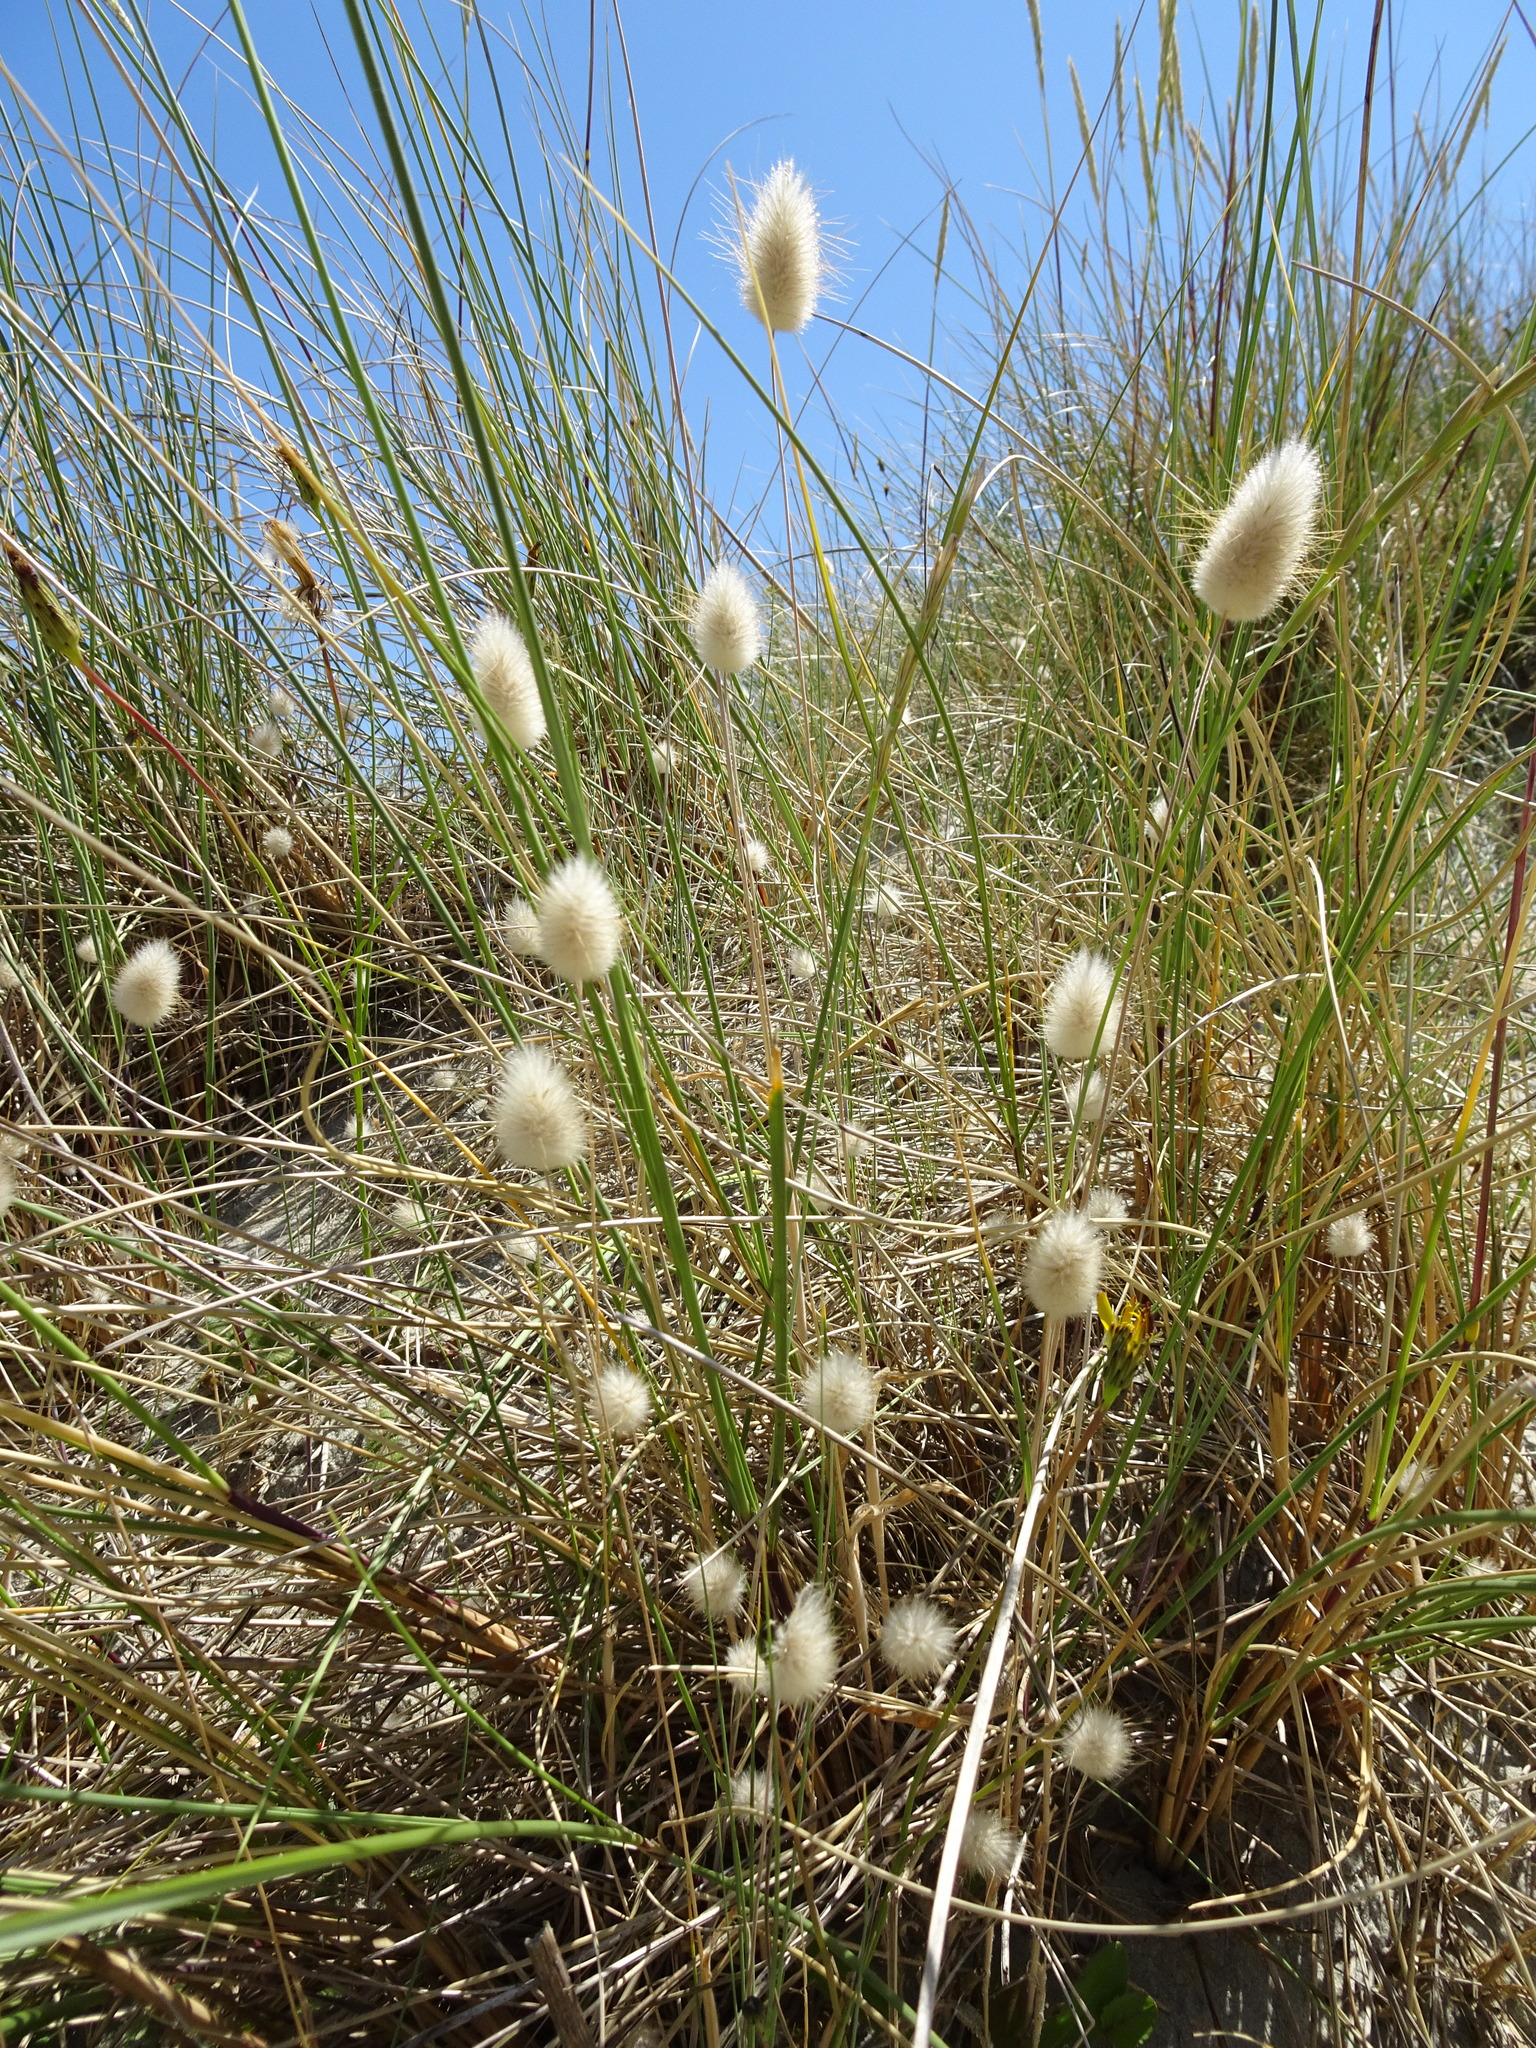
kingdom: Plantae
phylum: Tracheophyta
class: Liliopsida
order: Poales
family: Poaceae
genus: Lagurus
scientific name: Lagurus ovatus
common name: Hare's-tail
